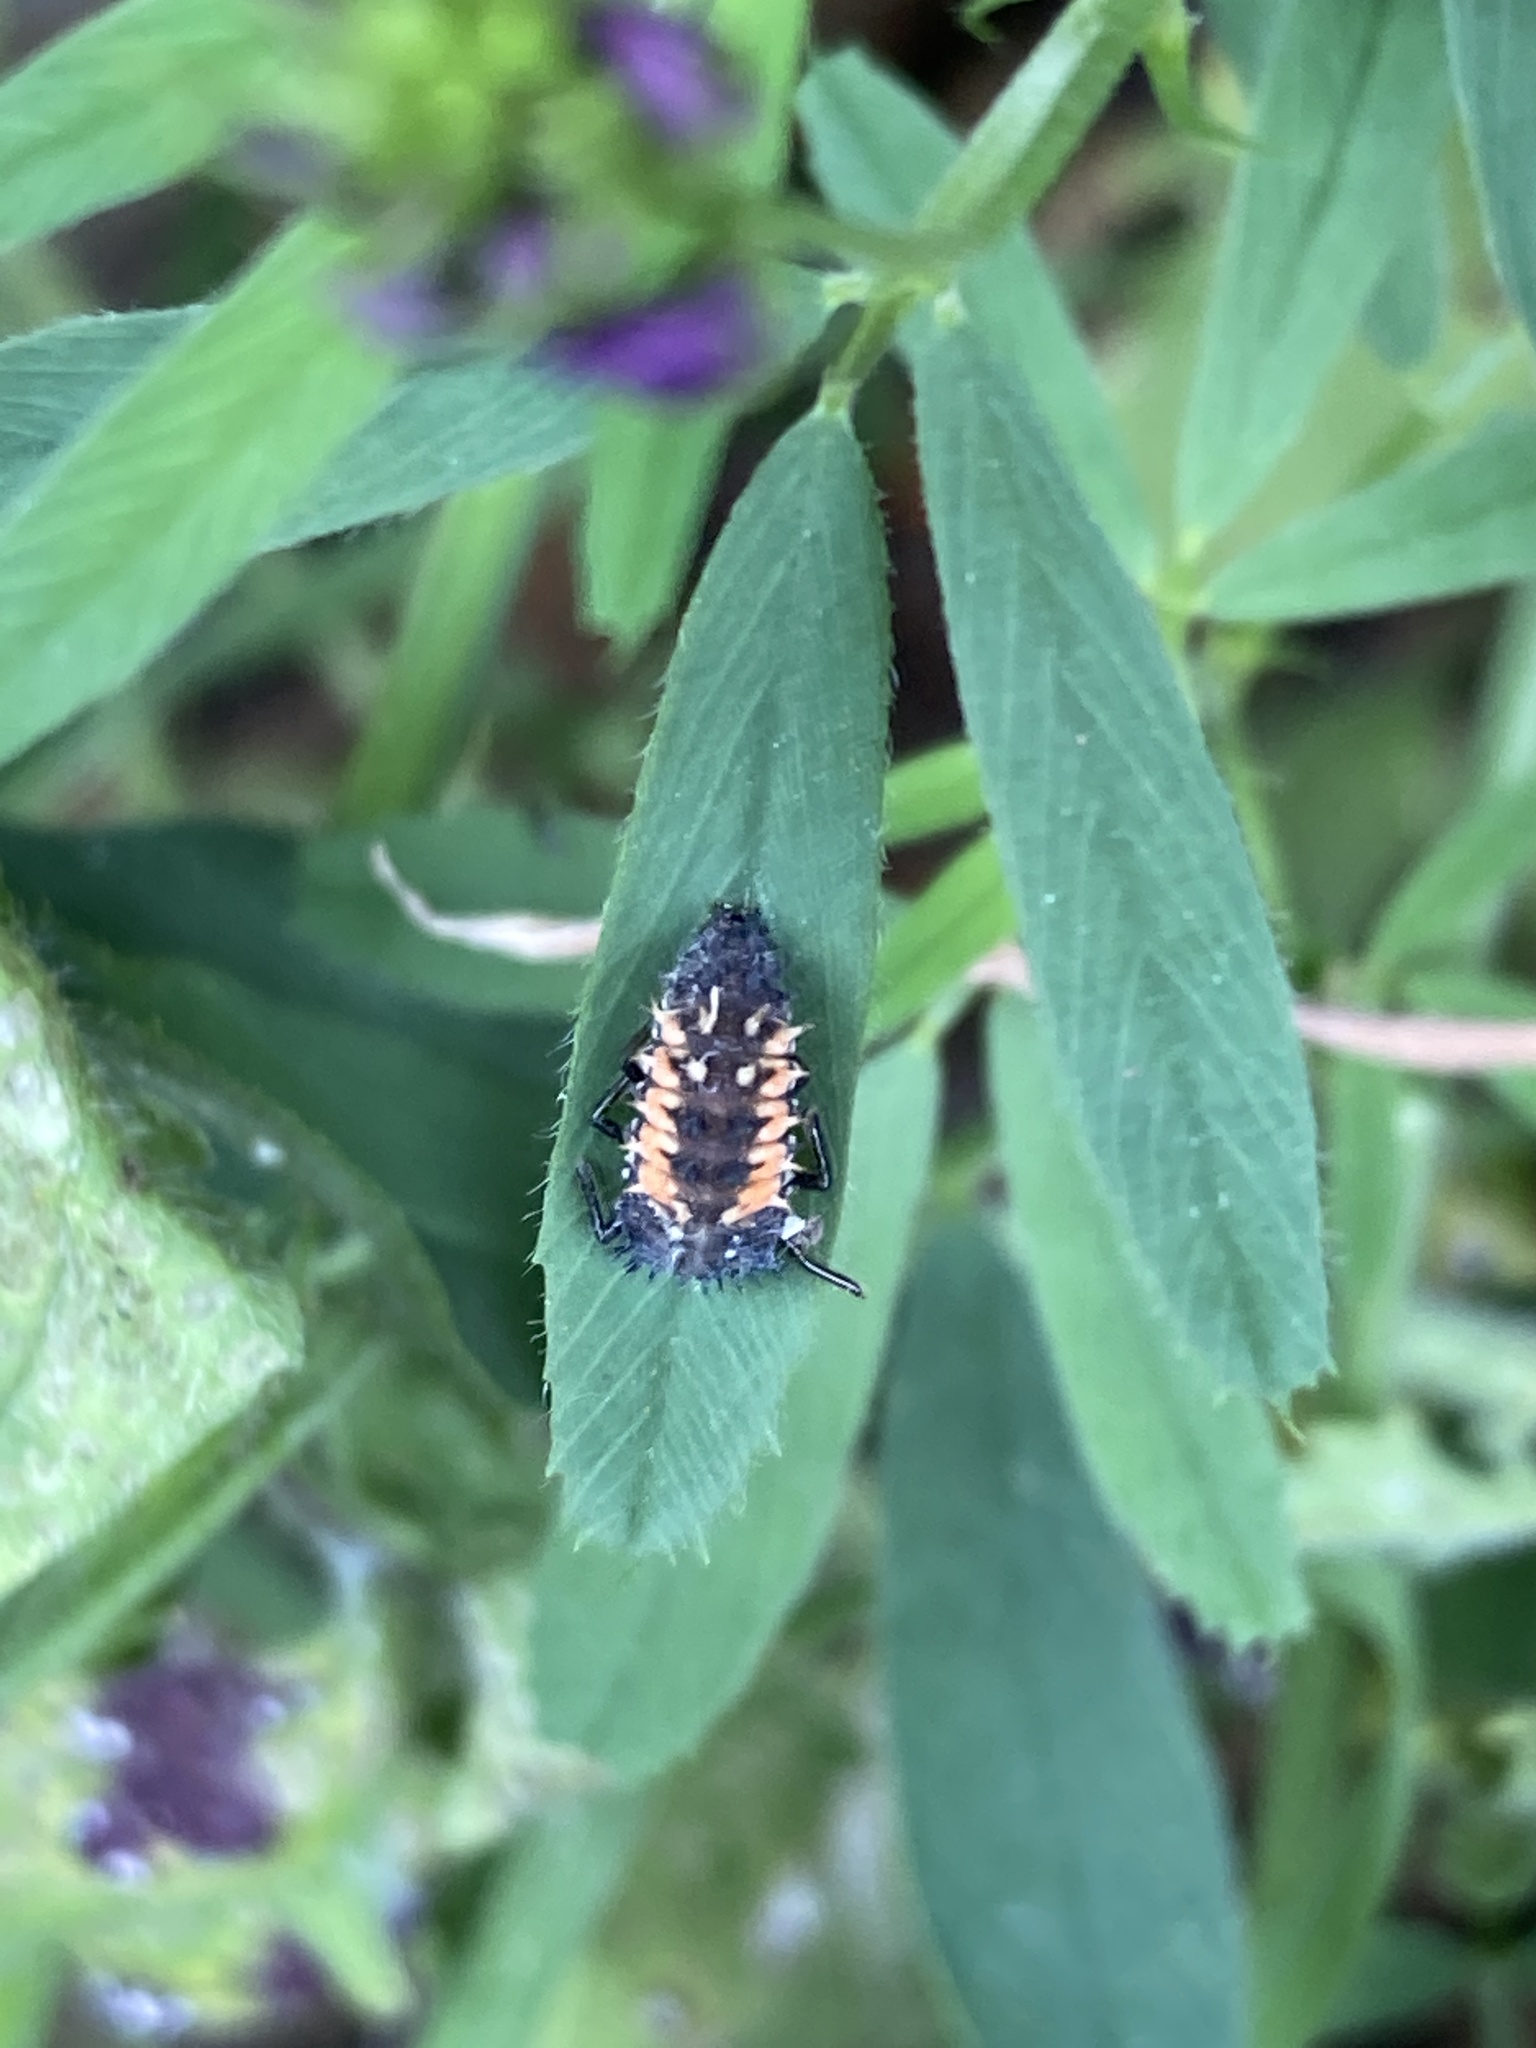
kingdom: Animalia
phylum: Arthropoda
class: Insecta
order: Coleoptera
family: Coccinellidae
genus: Harmonia
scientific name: Harmonia axyridis
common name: Harlequin ladybird
